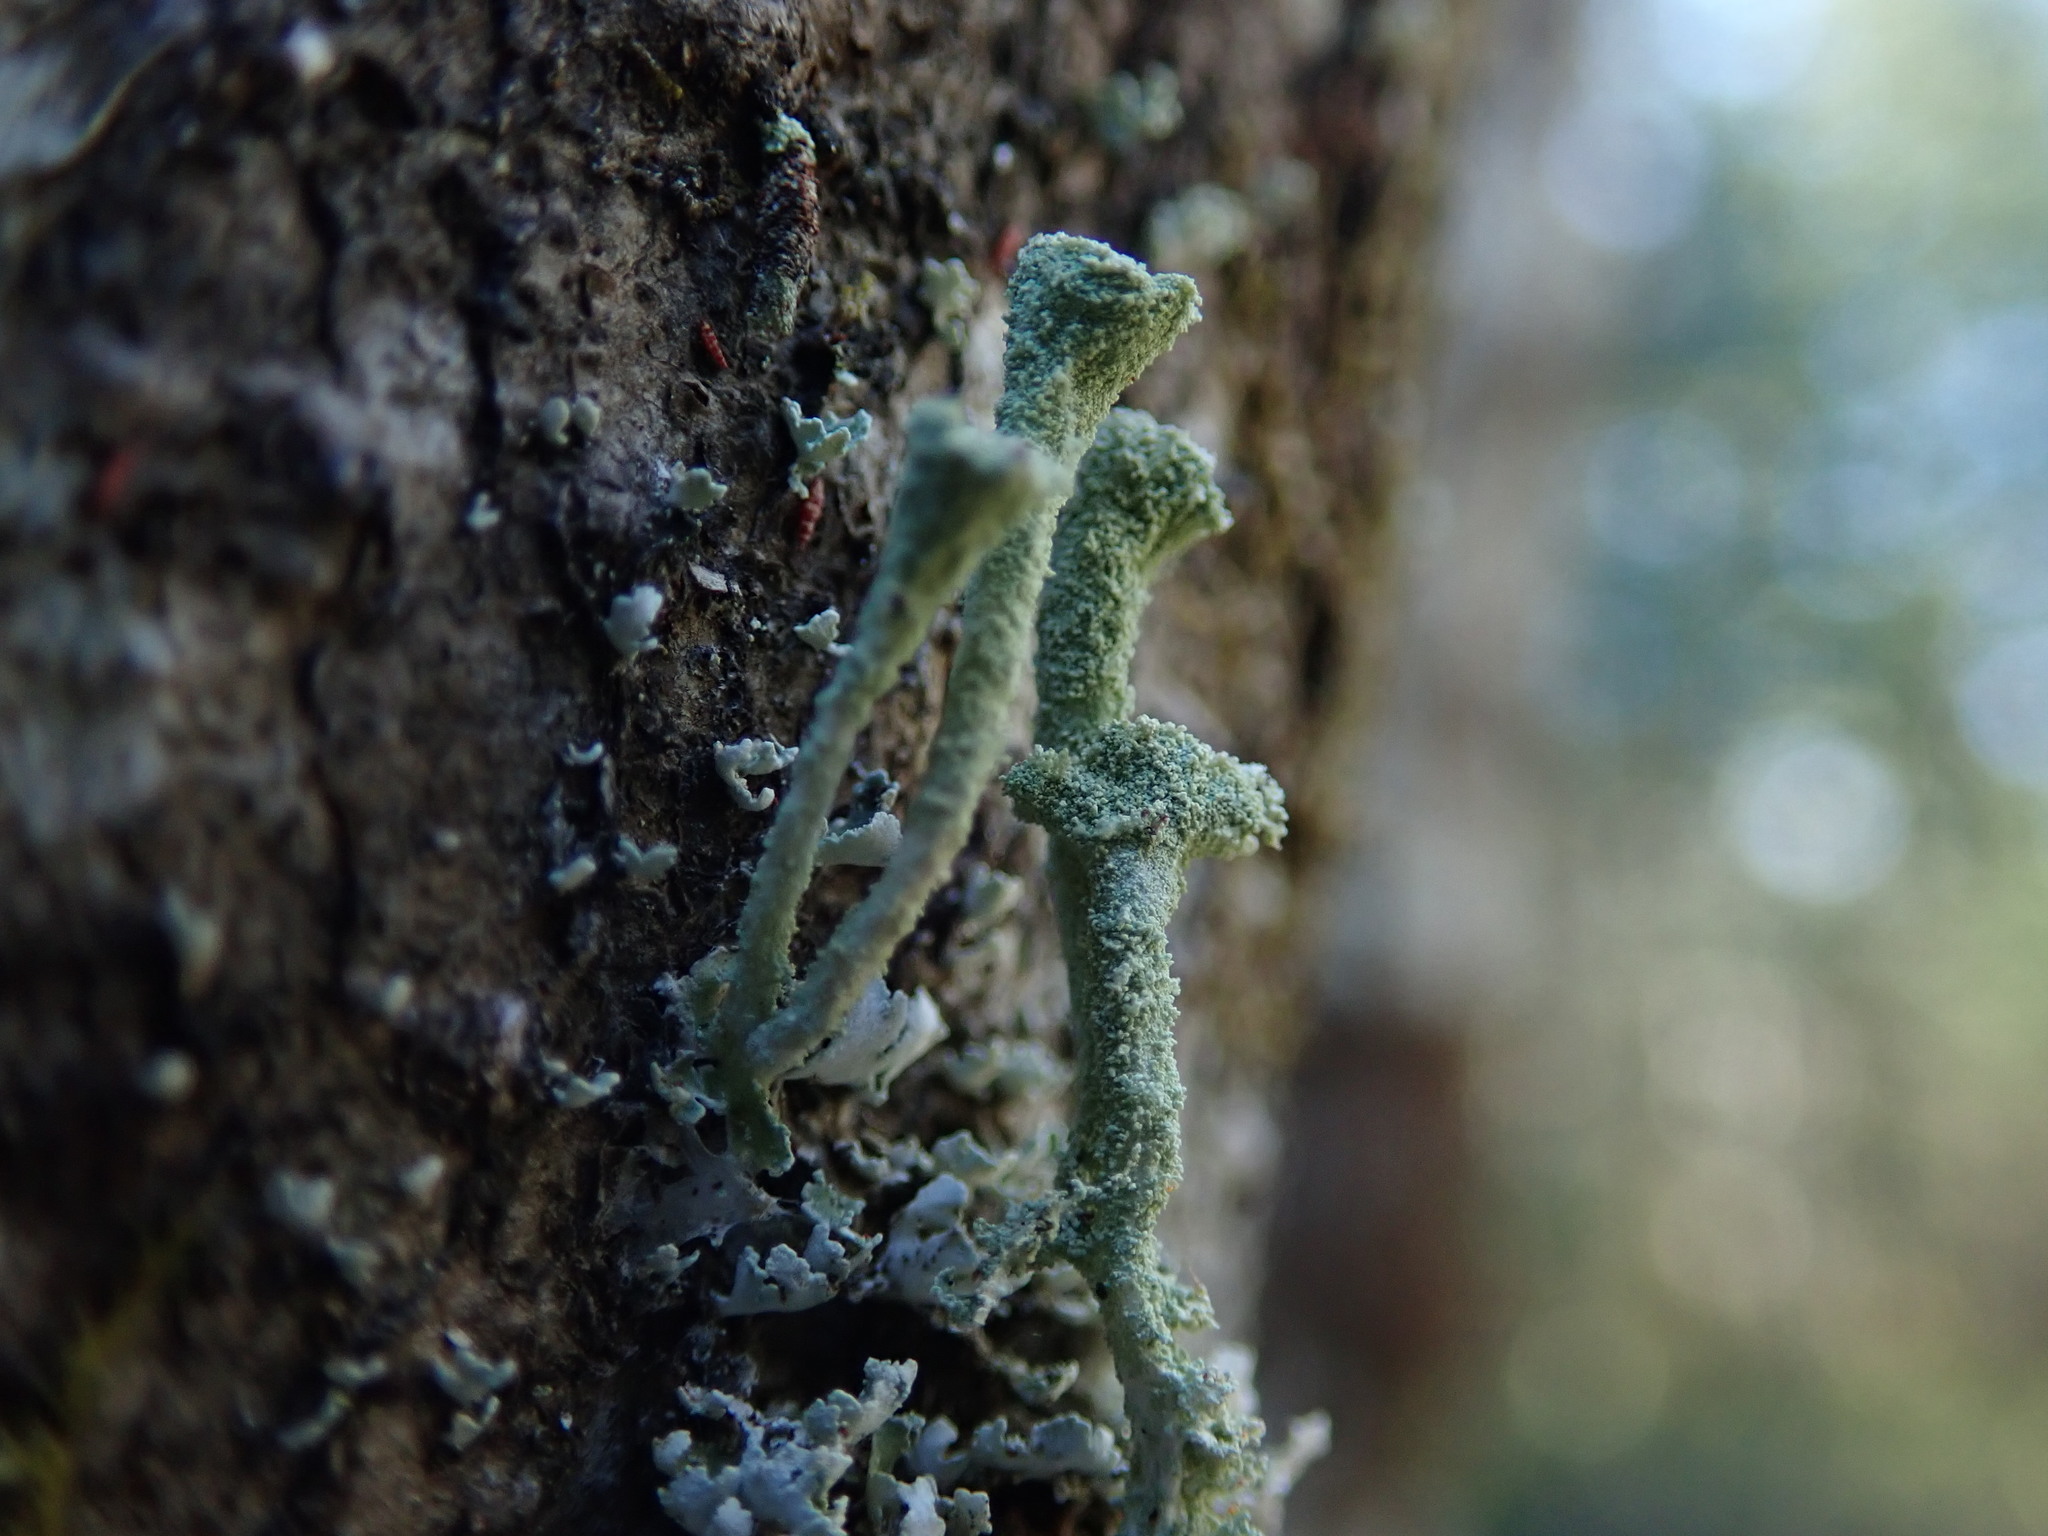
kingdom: Fungi
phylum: Ascomycota
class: Lecanoromycetes
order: Lecanorales
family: Cladoniaceae
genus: Cladonia
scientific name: Cladonia chlorophaea
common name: Mealy pixie cup
